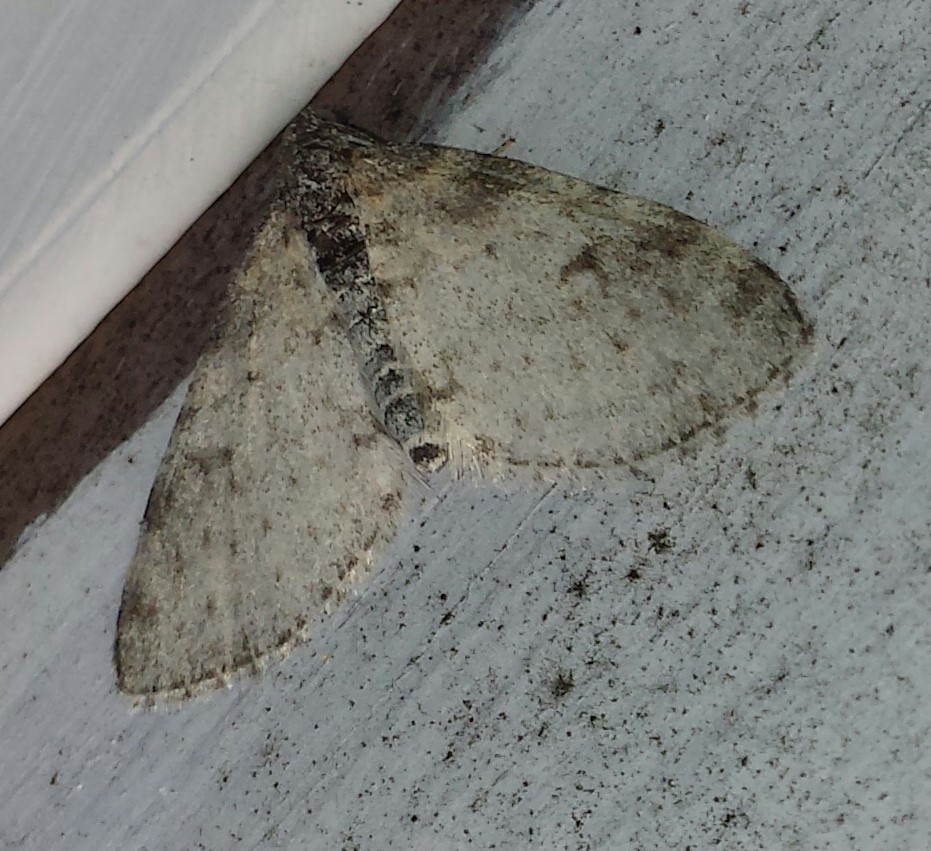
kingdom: Animalia
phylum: Arthropoda
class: Insecta
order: Lepidoptera
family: Geometridae
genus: Lobophora
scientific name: Lobophora nivigerata
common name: Powdered bigwing
